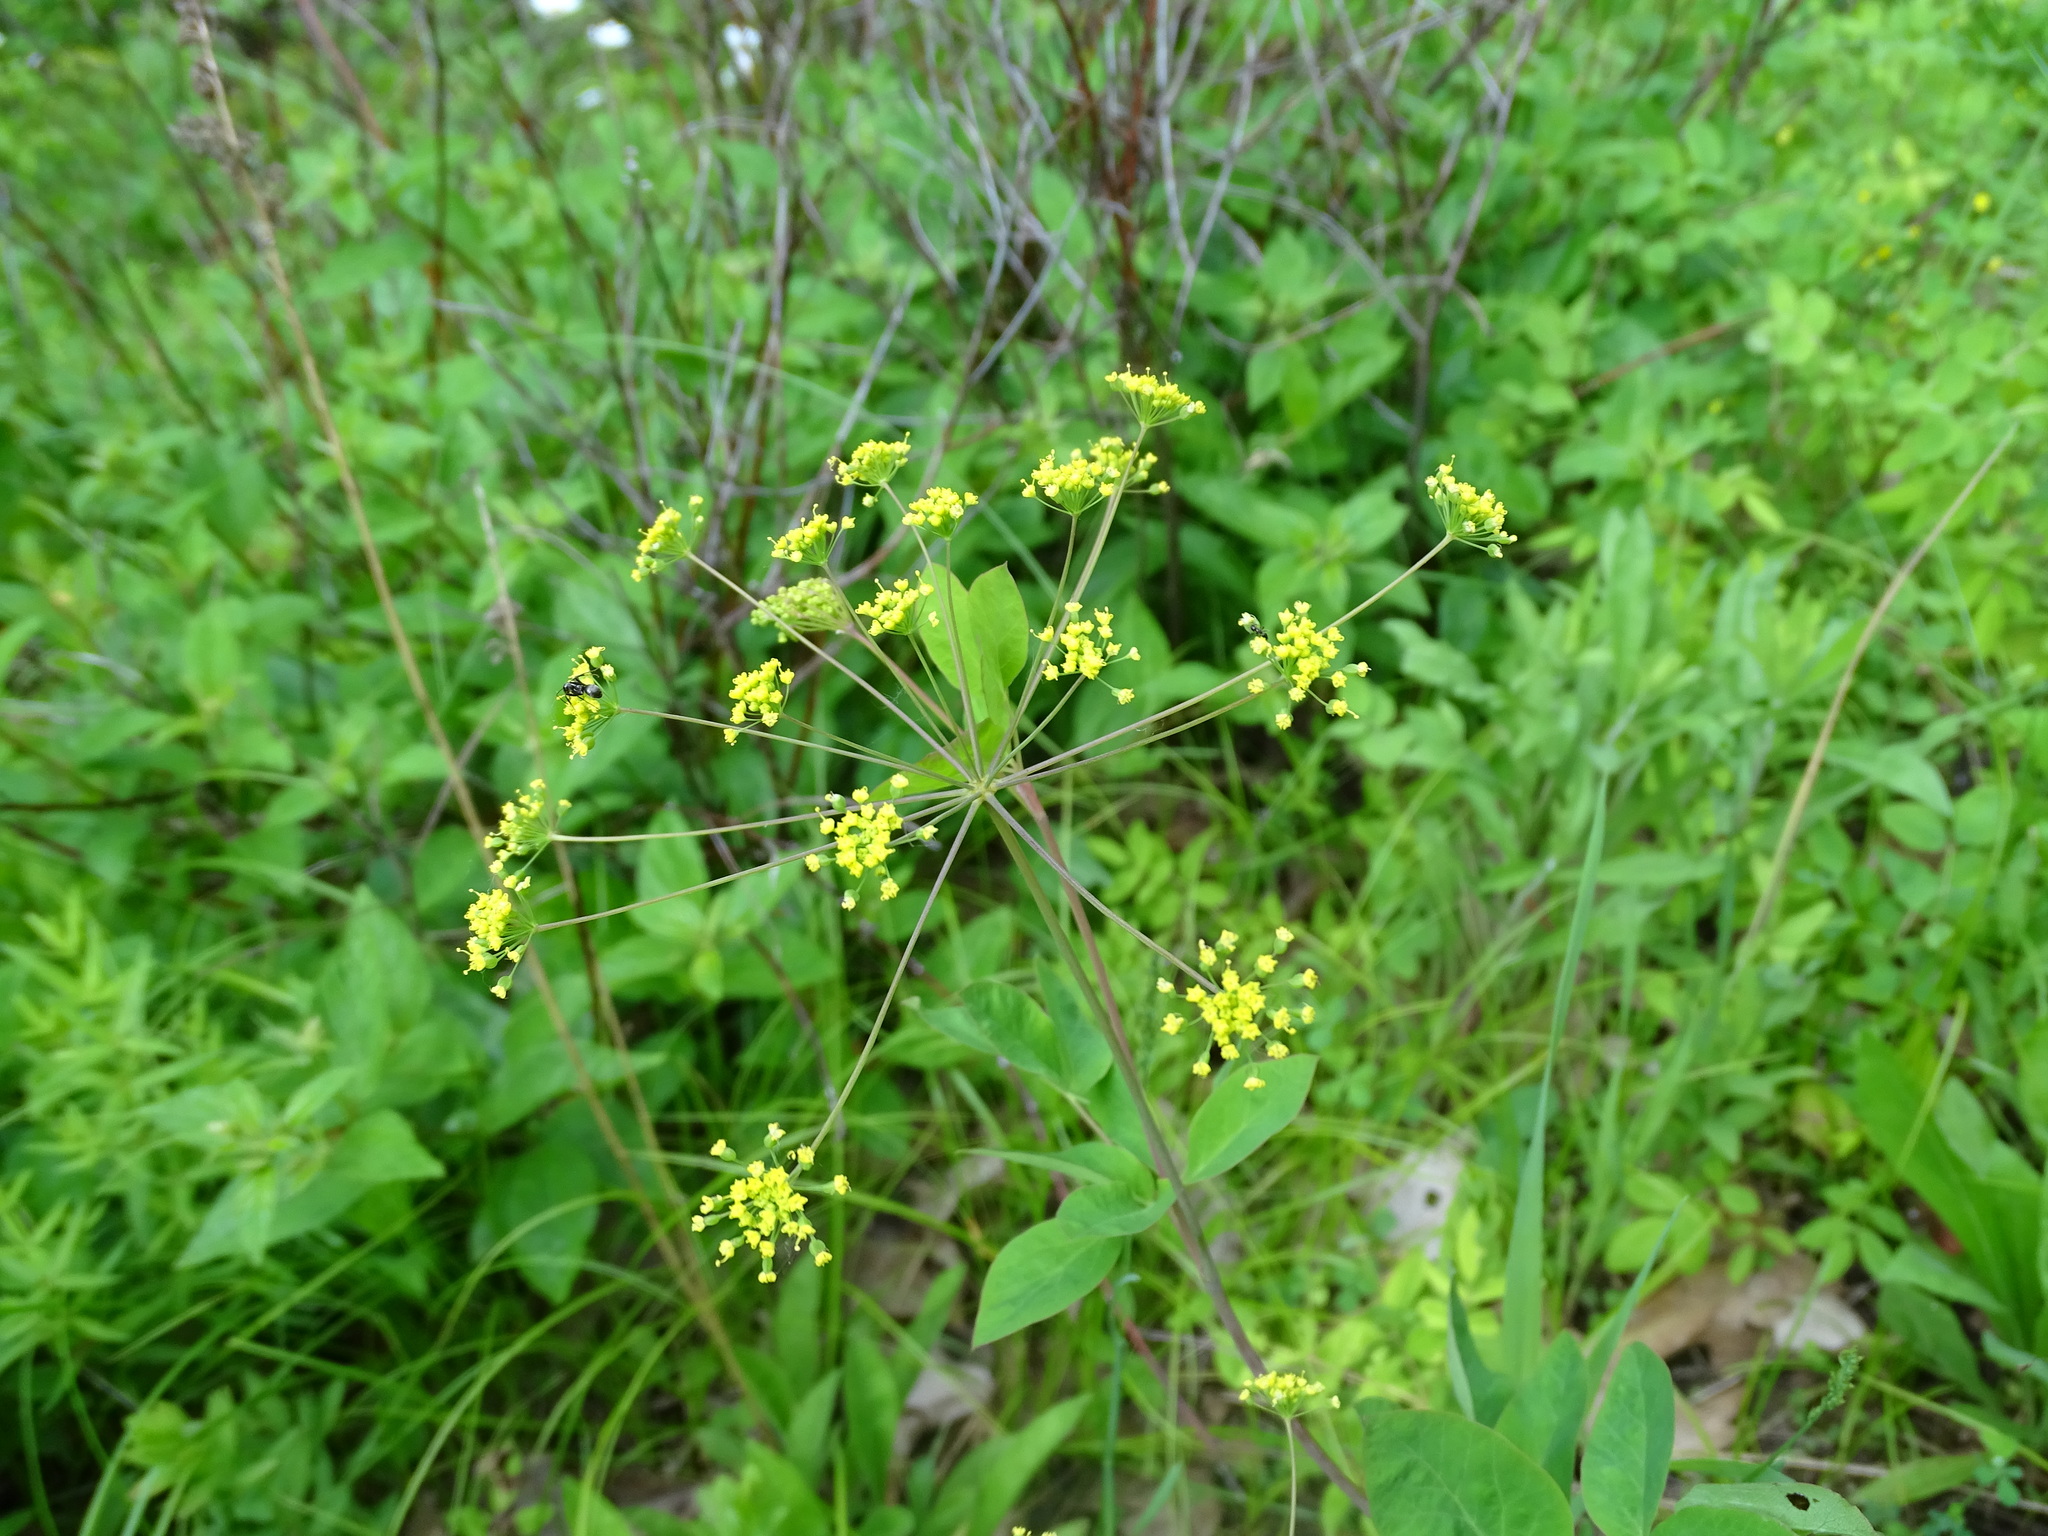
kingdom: Plantae
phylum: Tracheophyta
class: Magnoliopsida
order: Apiales
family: Apiaceae
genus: Taenidia
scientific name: Taenidia integerrima
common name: Golden alexander
